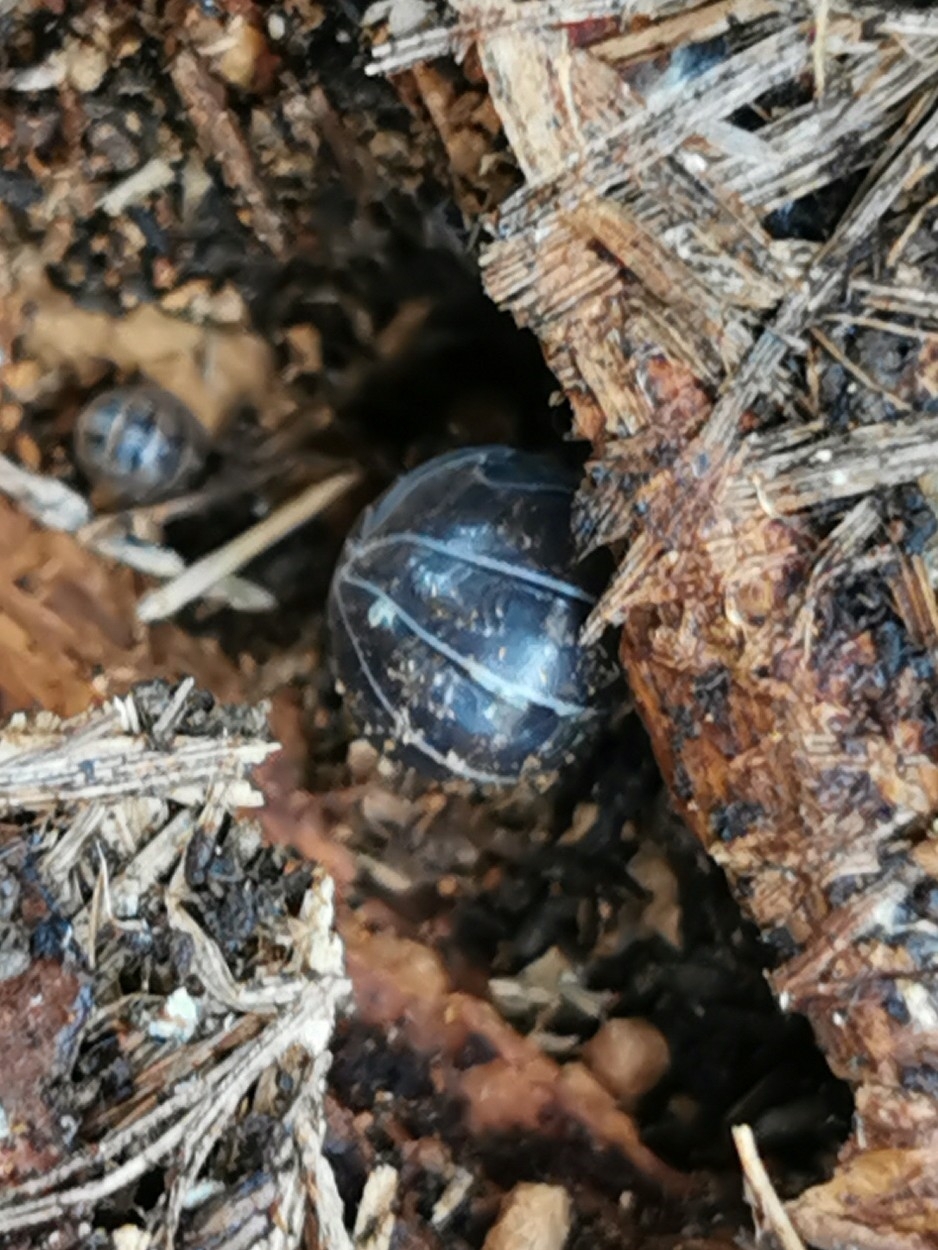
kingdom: Animalia
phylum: Arthropoda
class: Malacostraca
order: Isopoda
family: Armadillidiidae
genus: Armadillidium
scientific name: Armadillidium vulgare
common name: Common pill woodlouse
